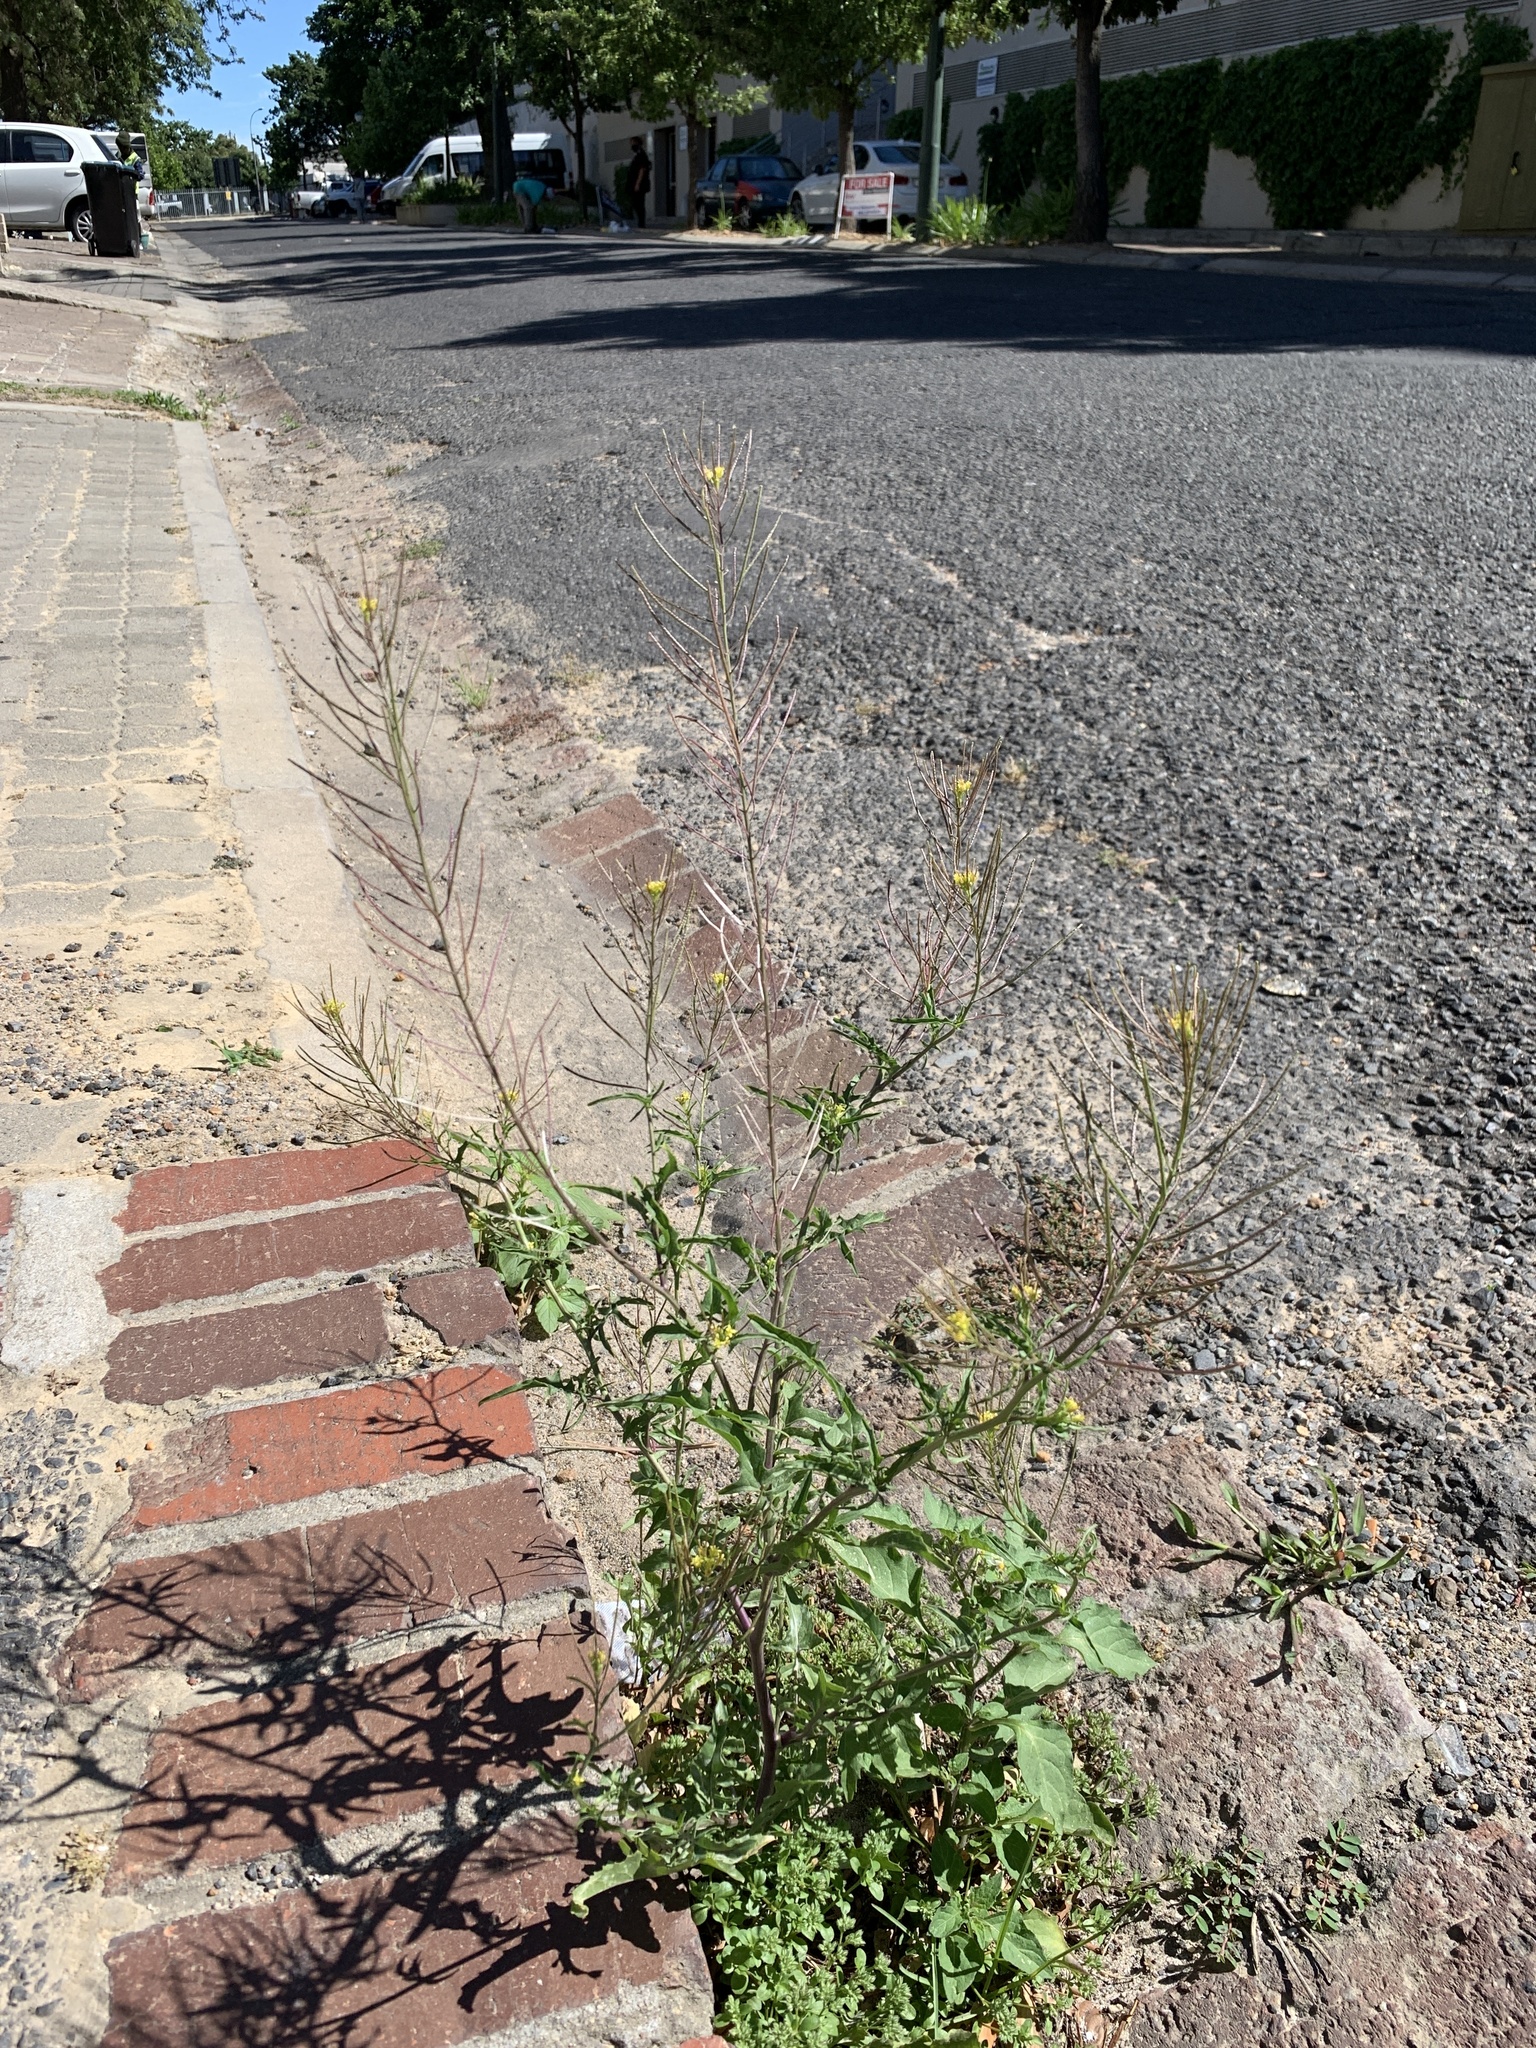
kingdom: Plantae
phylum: Tracheophyta
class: Magnoliopsida
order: Brassicales
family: Brassicaceae
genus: Sisymbrium
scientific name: Sisymbrium irio
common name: London rocket
